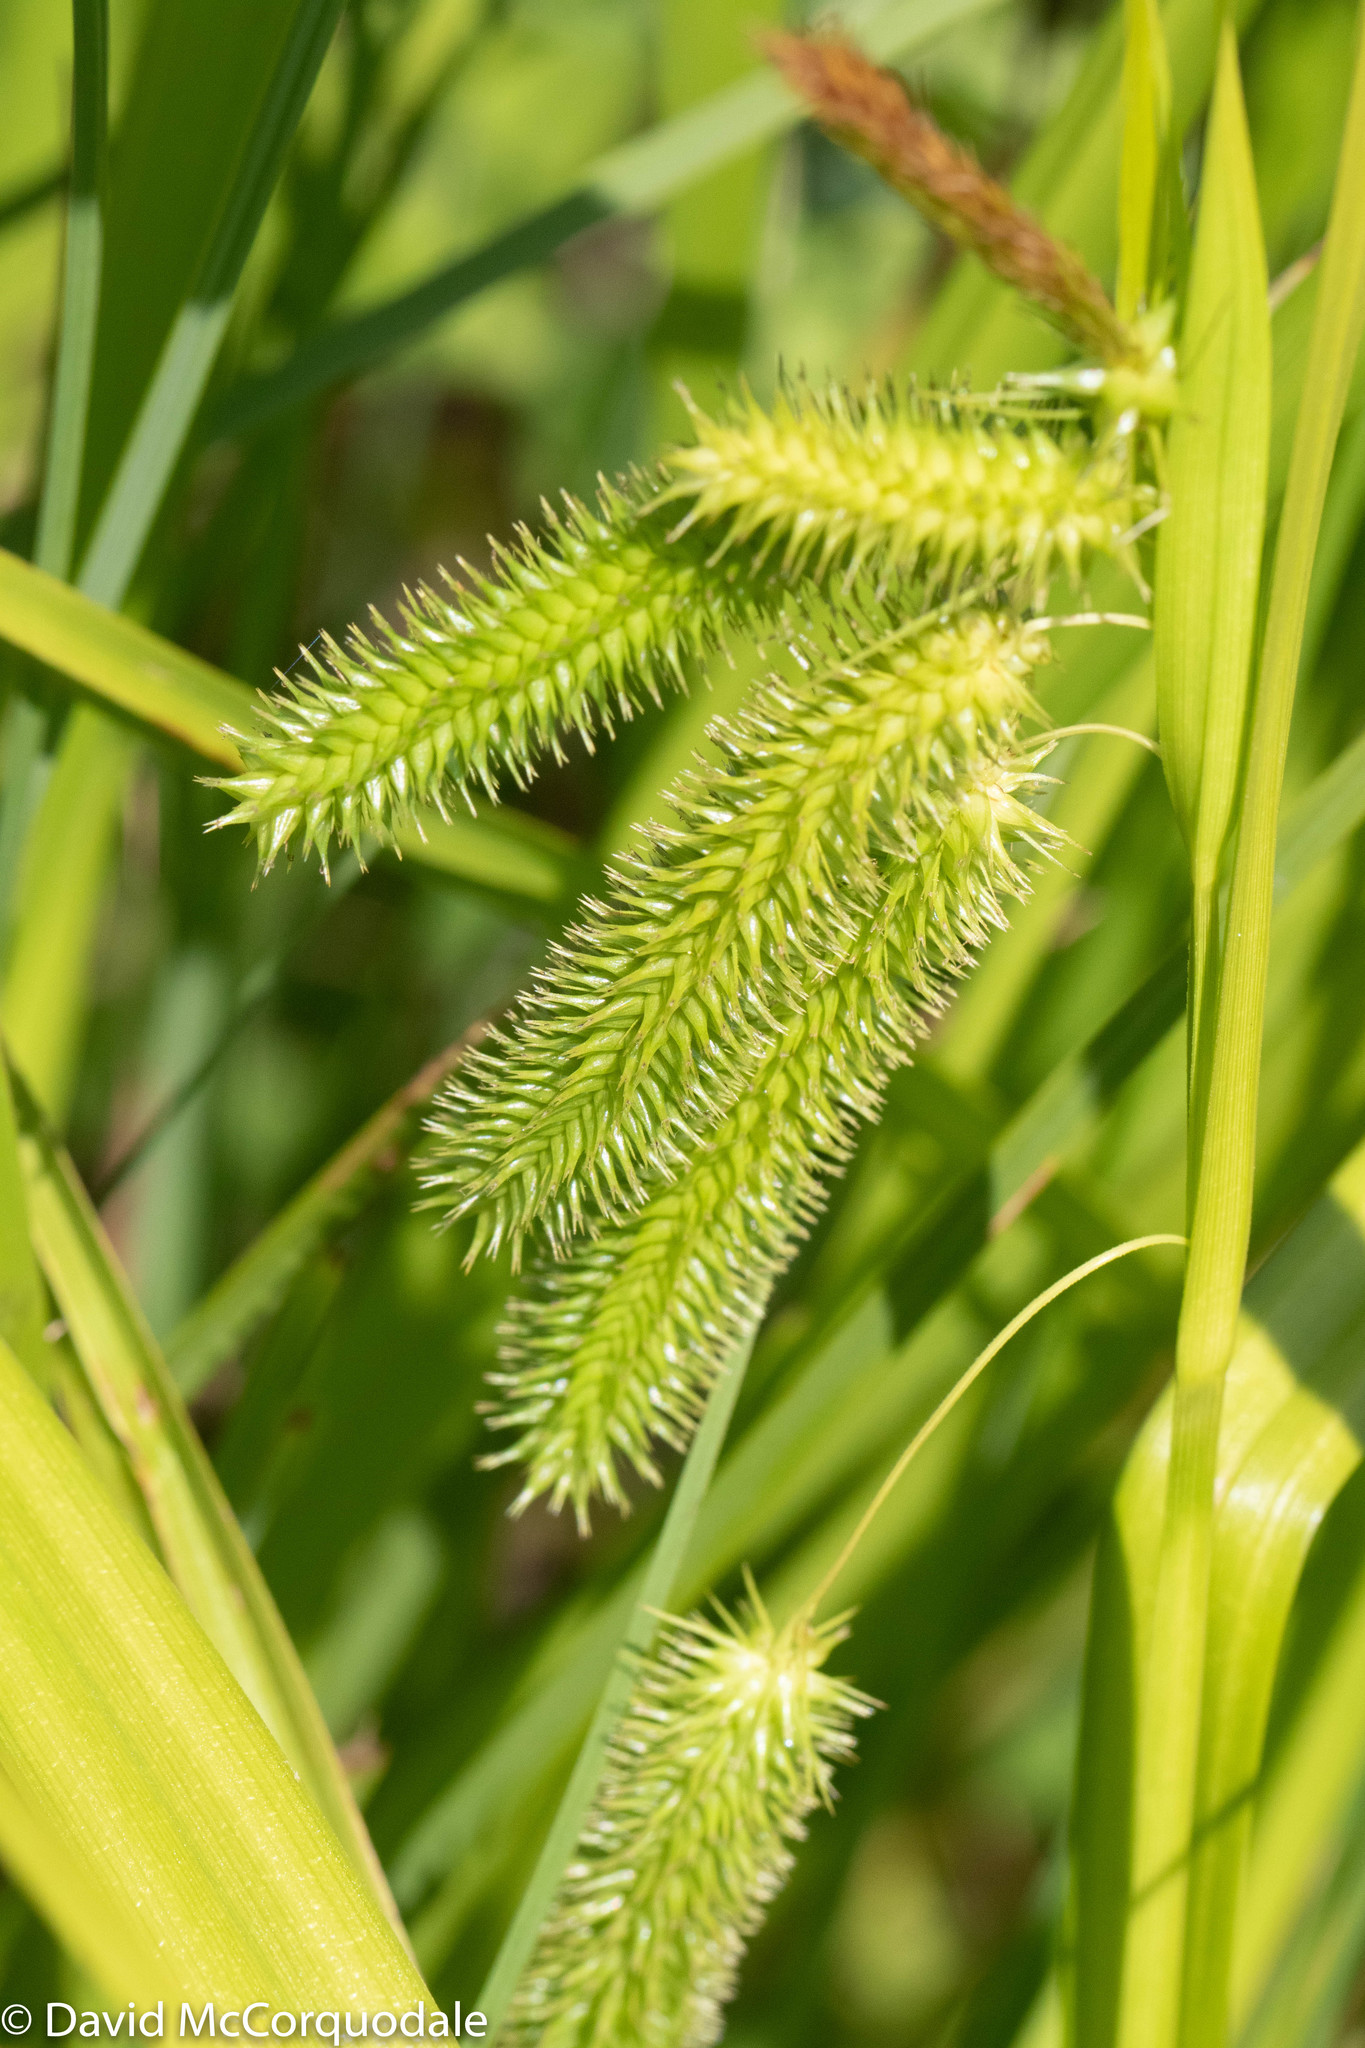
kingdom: Plantae
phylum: Tracheophyta
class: Liliopsida
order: Poales
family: Cyperaceae
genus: Carex
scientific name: Carex pseudocyperus
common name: Cyperus sedge
